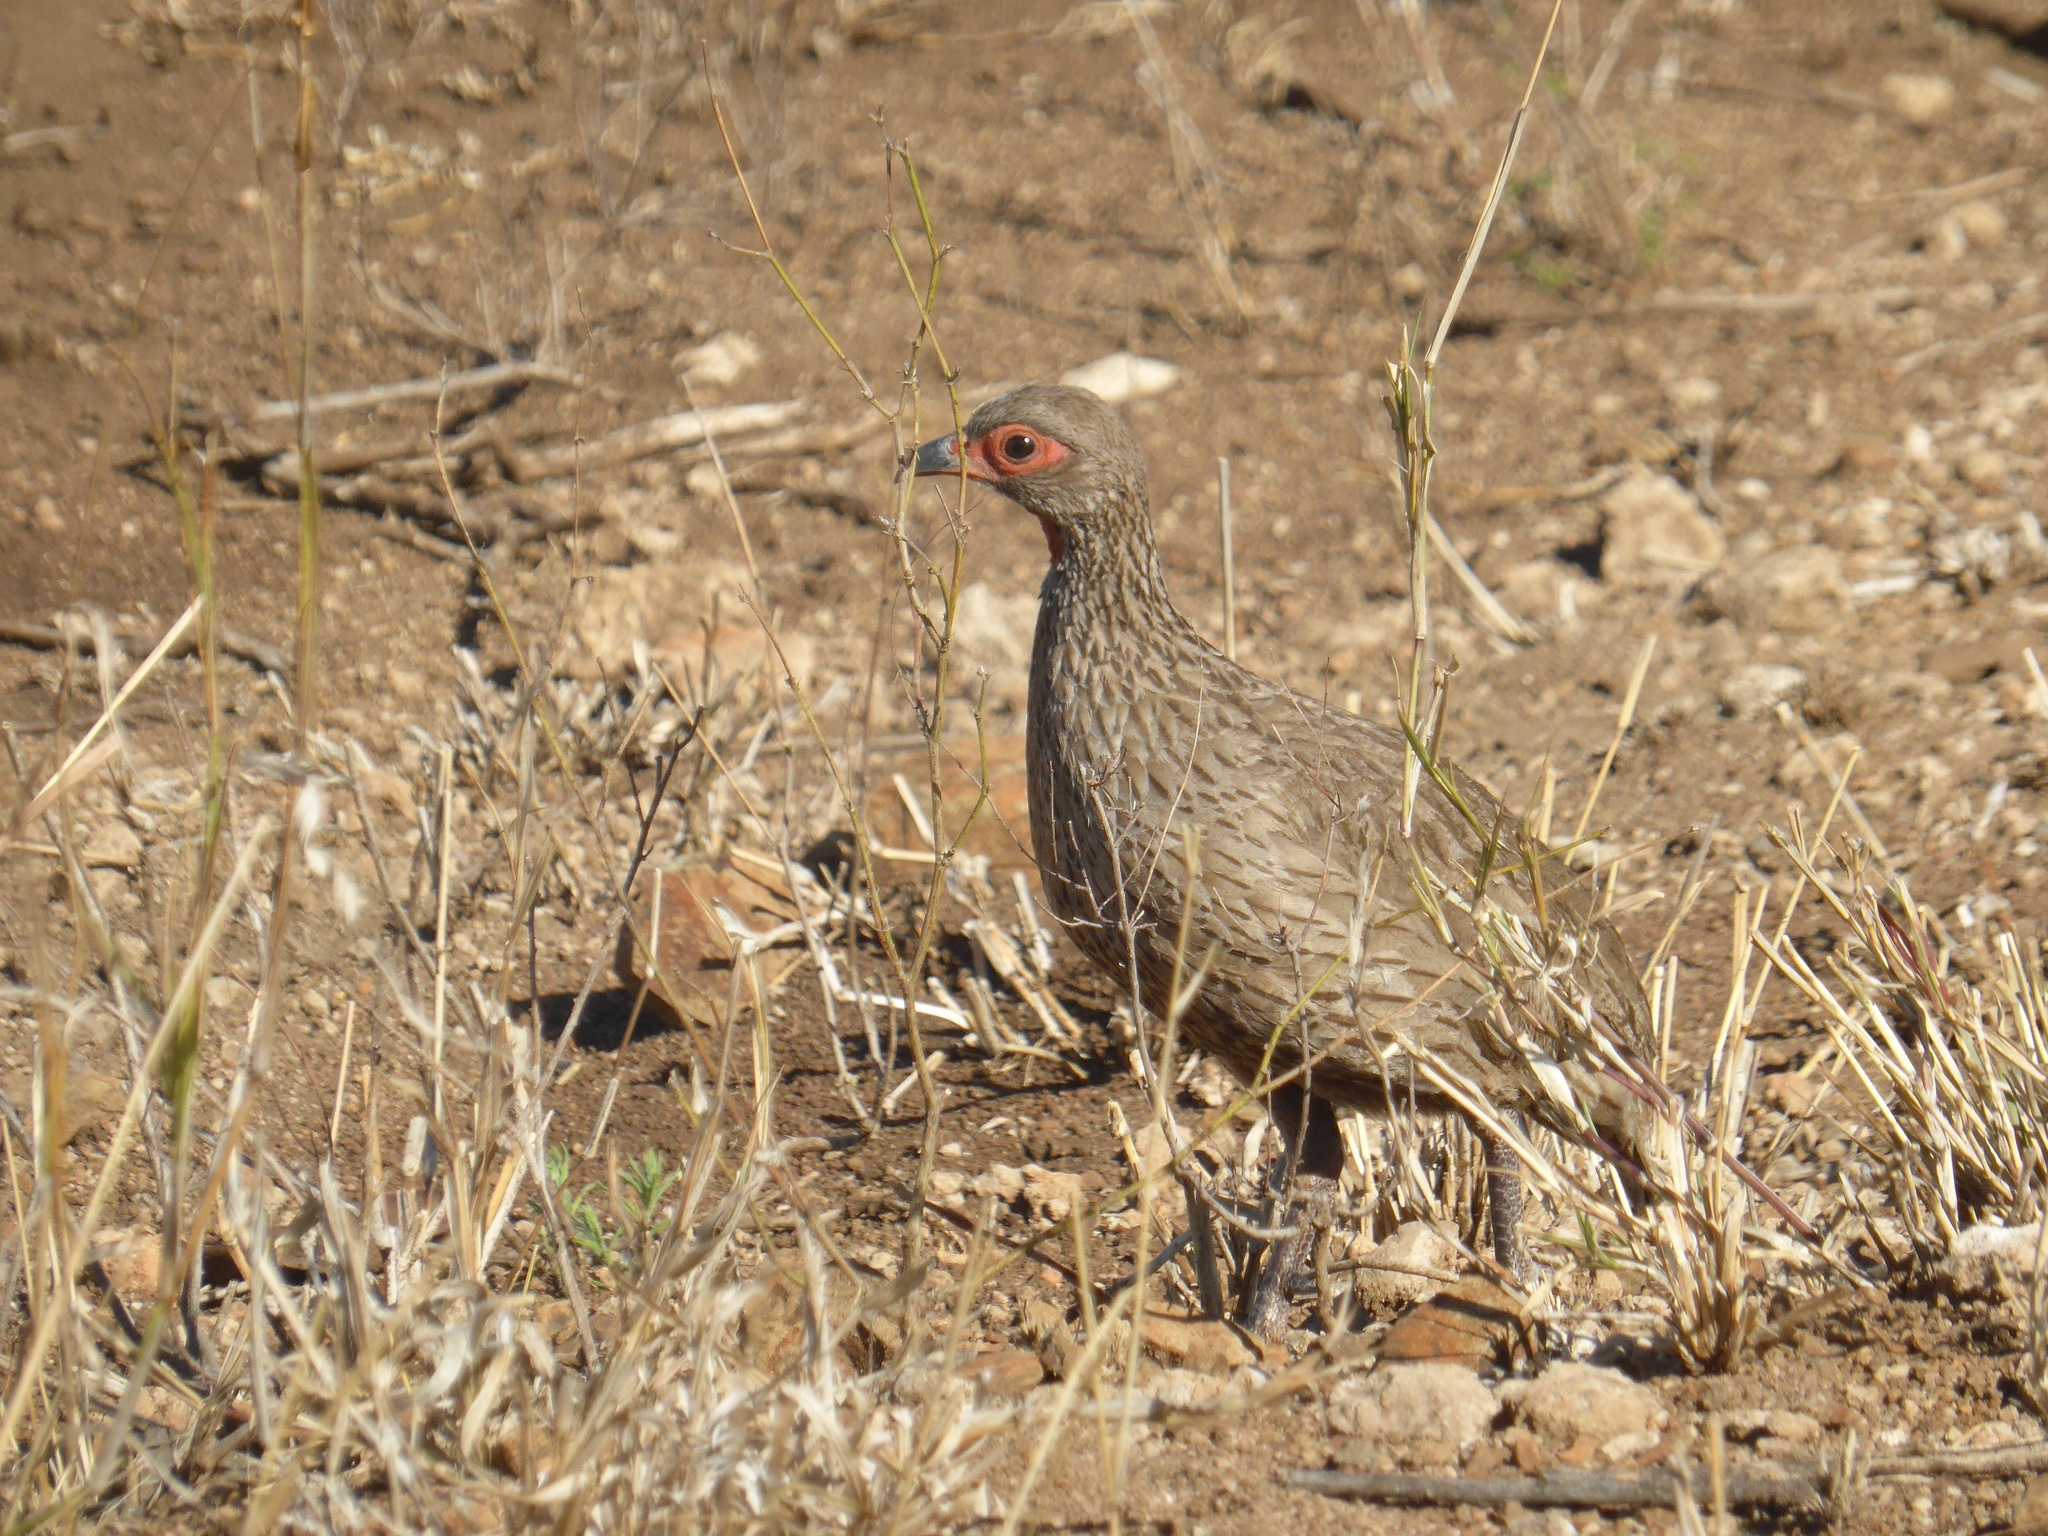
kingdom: Animalia
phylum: Chordata
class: Aves
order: Galliformes
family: Phasianidae
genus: Pternistis
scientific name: Pternistis swainsonii
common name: Swainson's spurfowl
